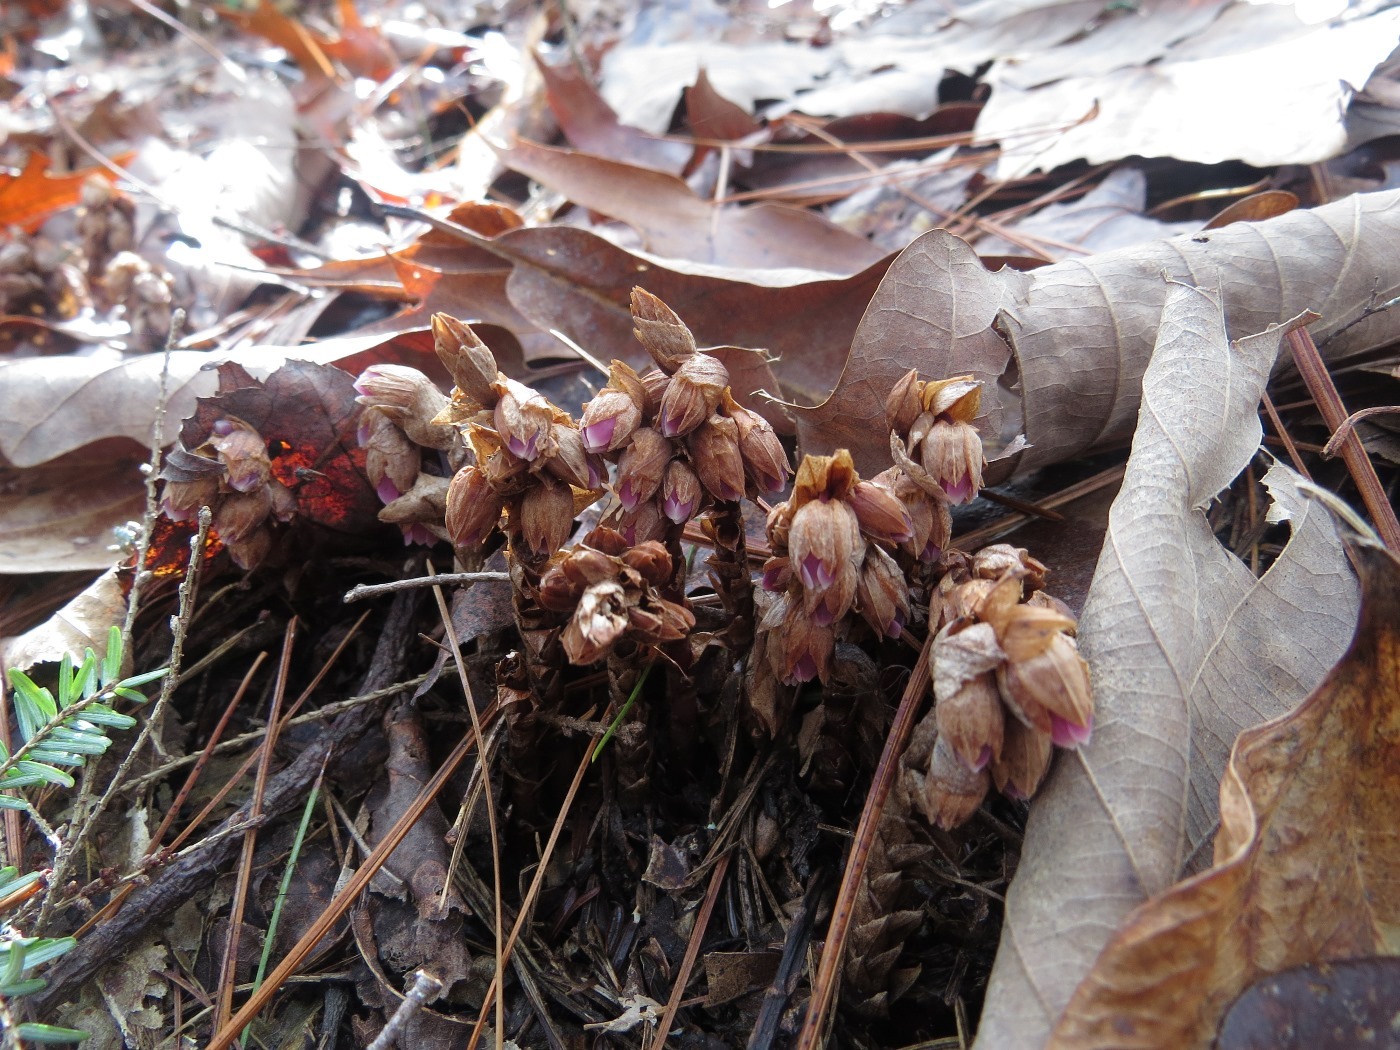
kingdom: Plantae
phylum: Tracheophyta
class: Magnoliopsida
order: Ericales
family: Ericaceae
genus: Monotropsis
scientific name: Monotropsis odorata
